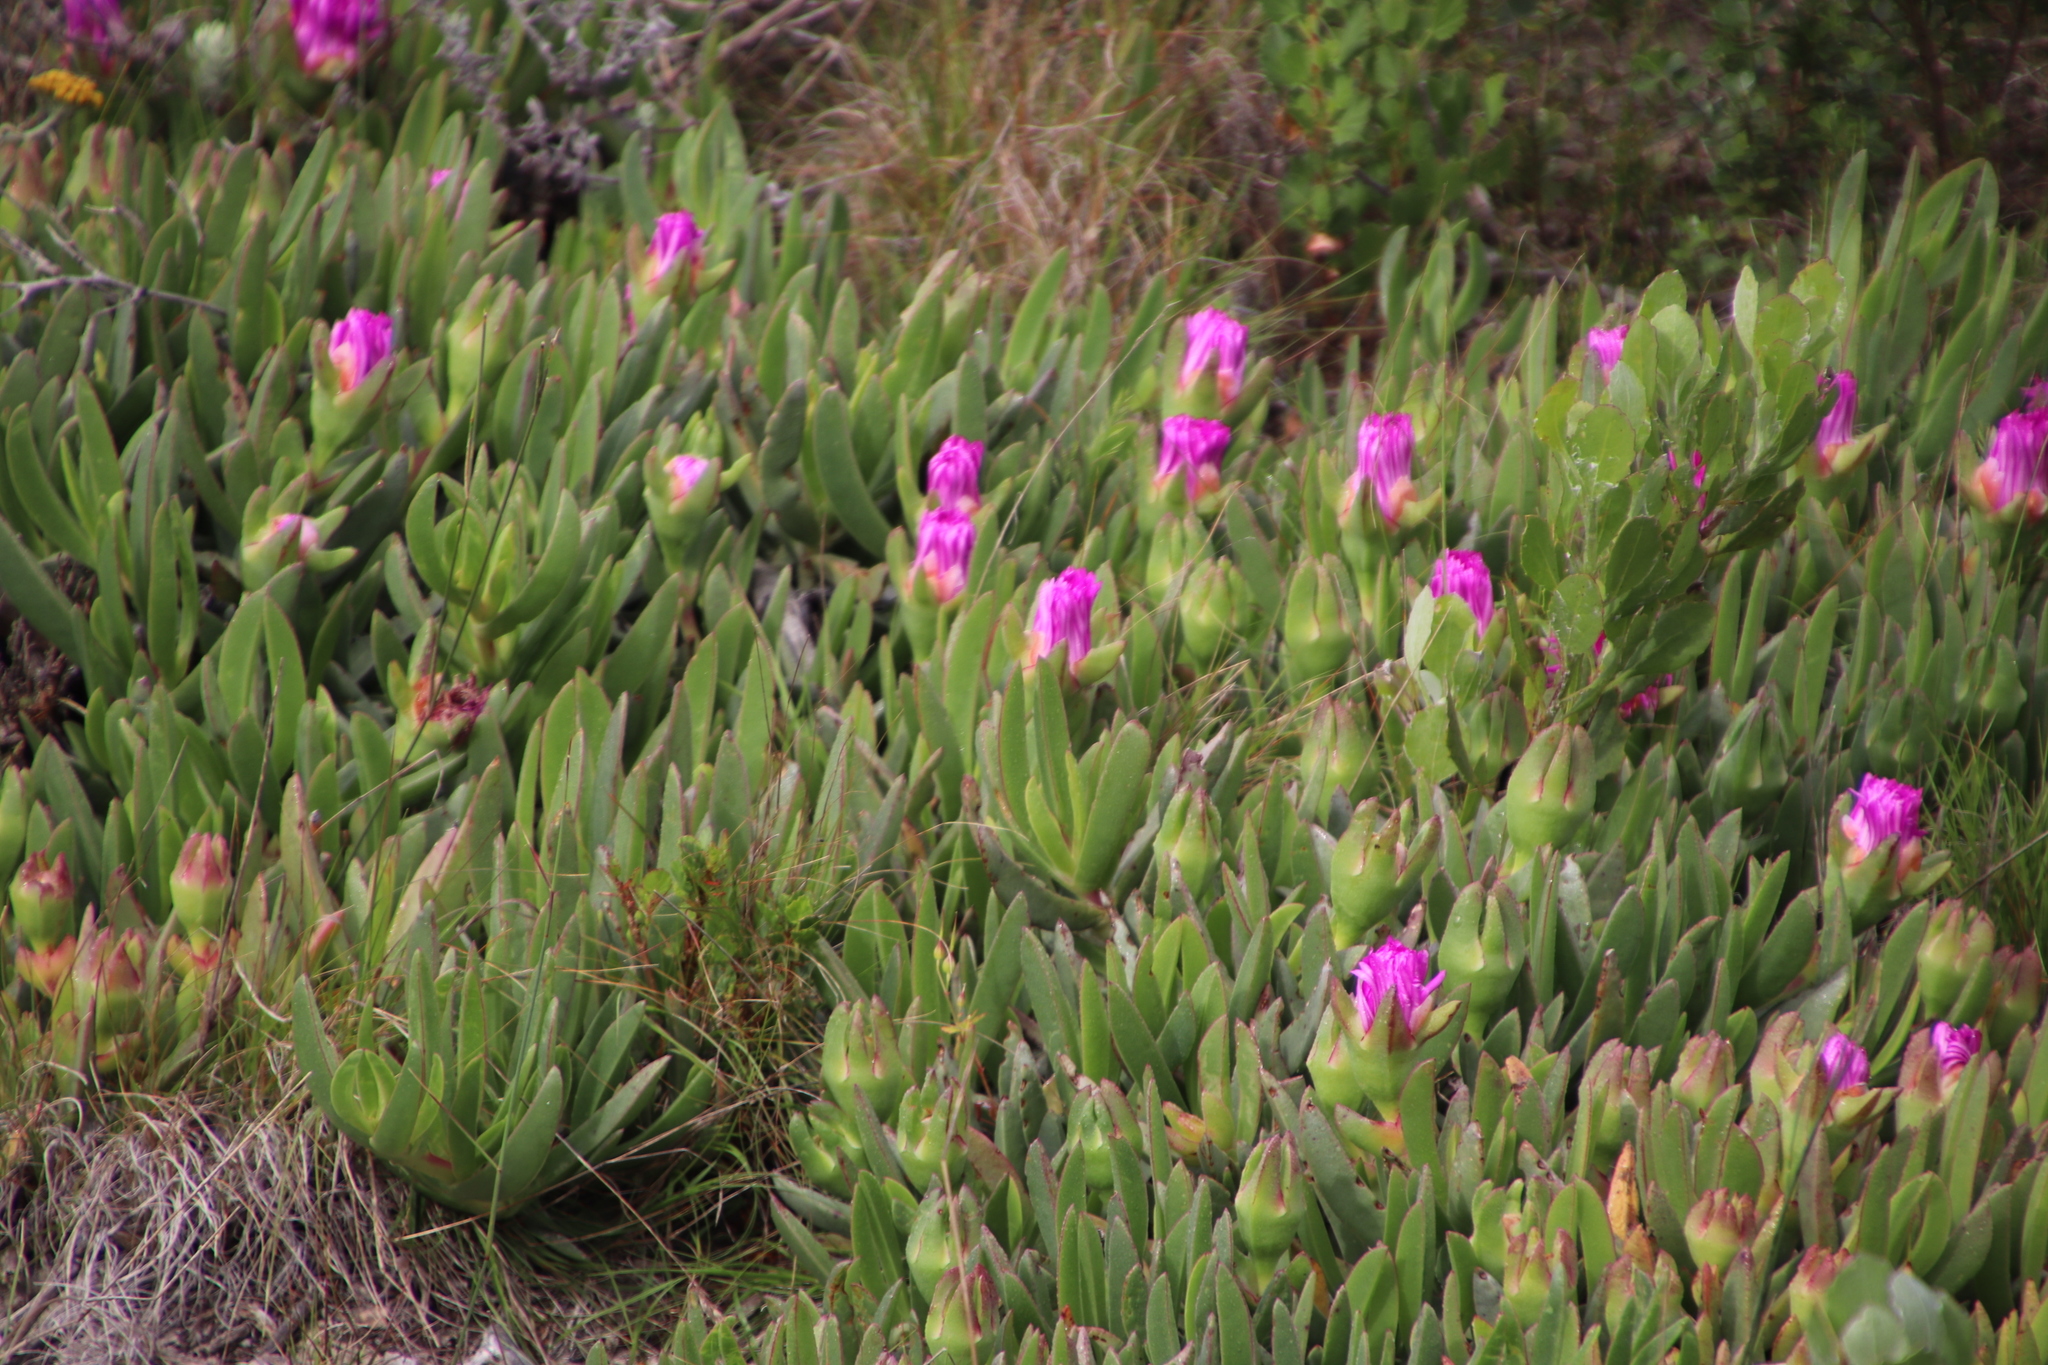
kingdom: Plantae
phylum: Tracheophyta
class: Magnoliopsida
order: Caryophyllales
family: Aizoaceae
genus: Carpobrotus
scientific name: Carpobrotus acinaciformis
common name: Sally-my-handsome
